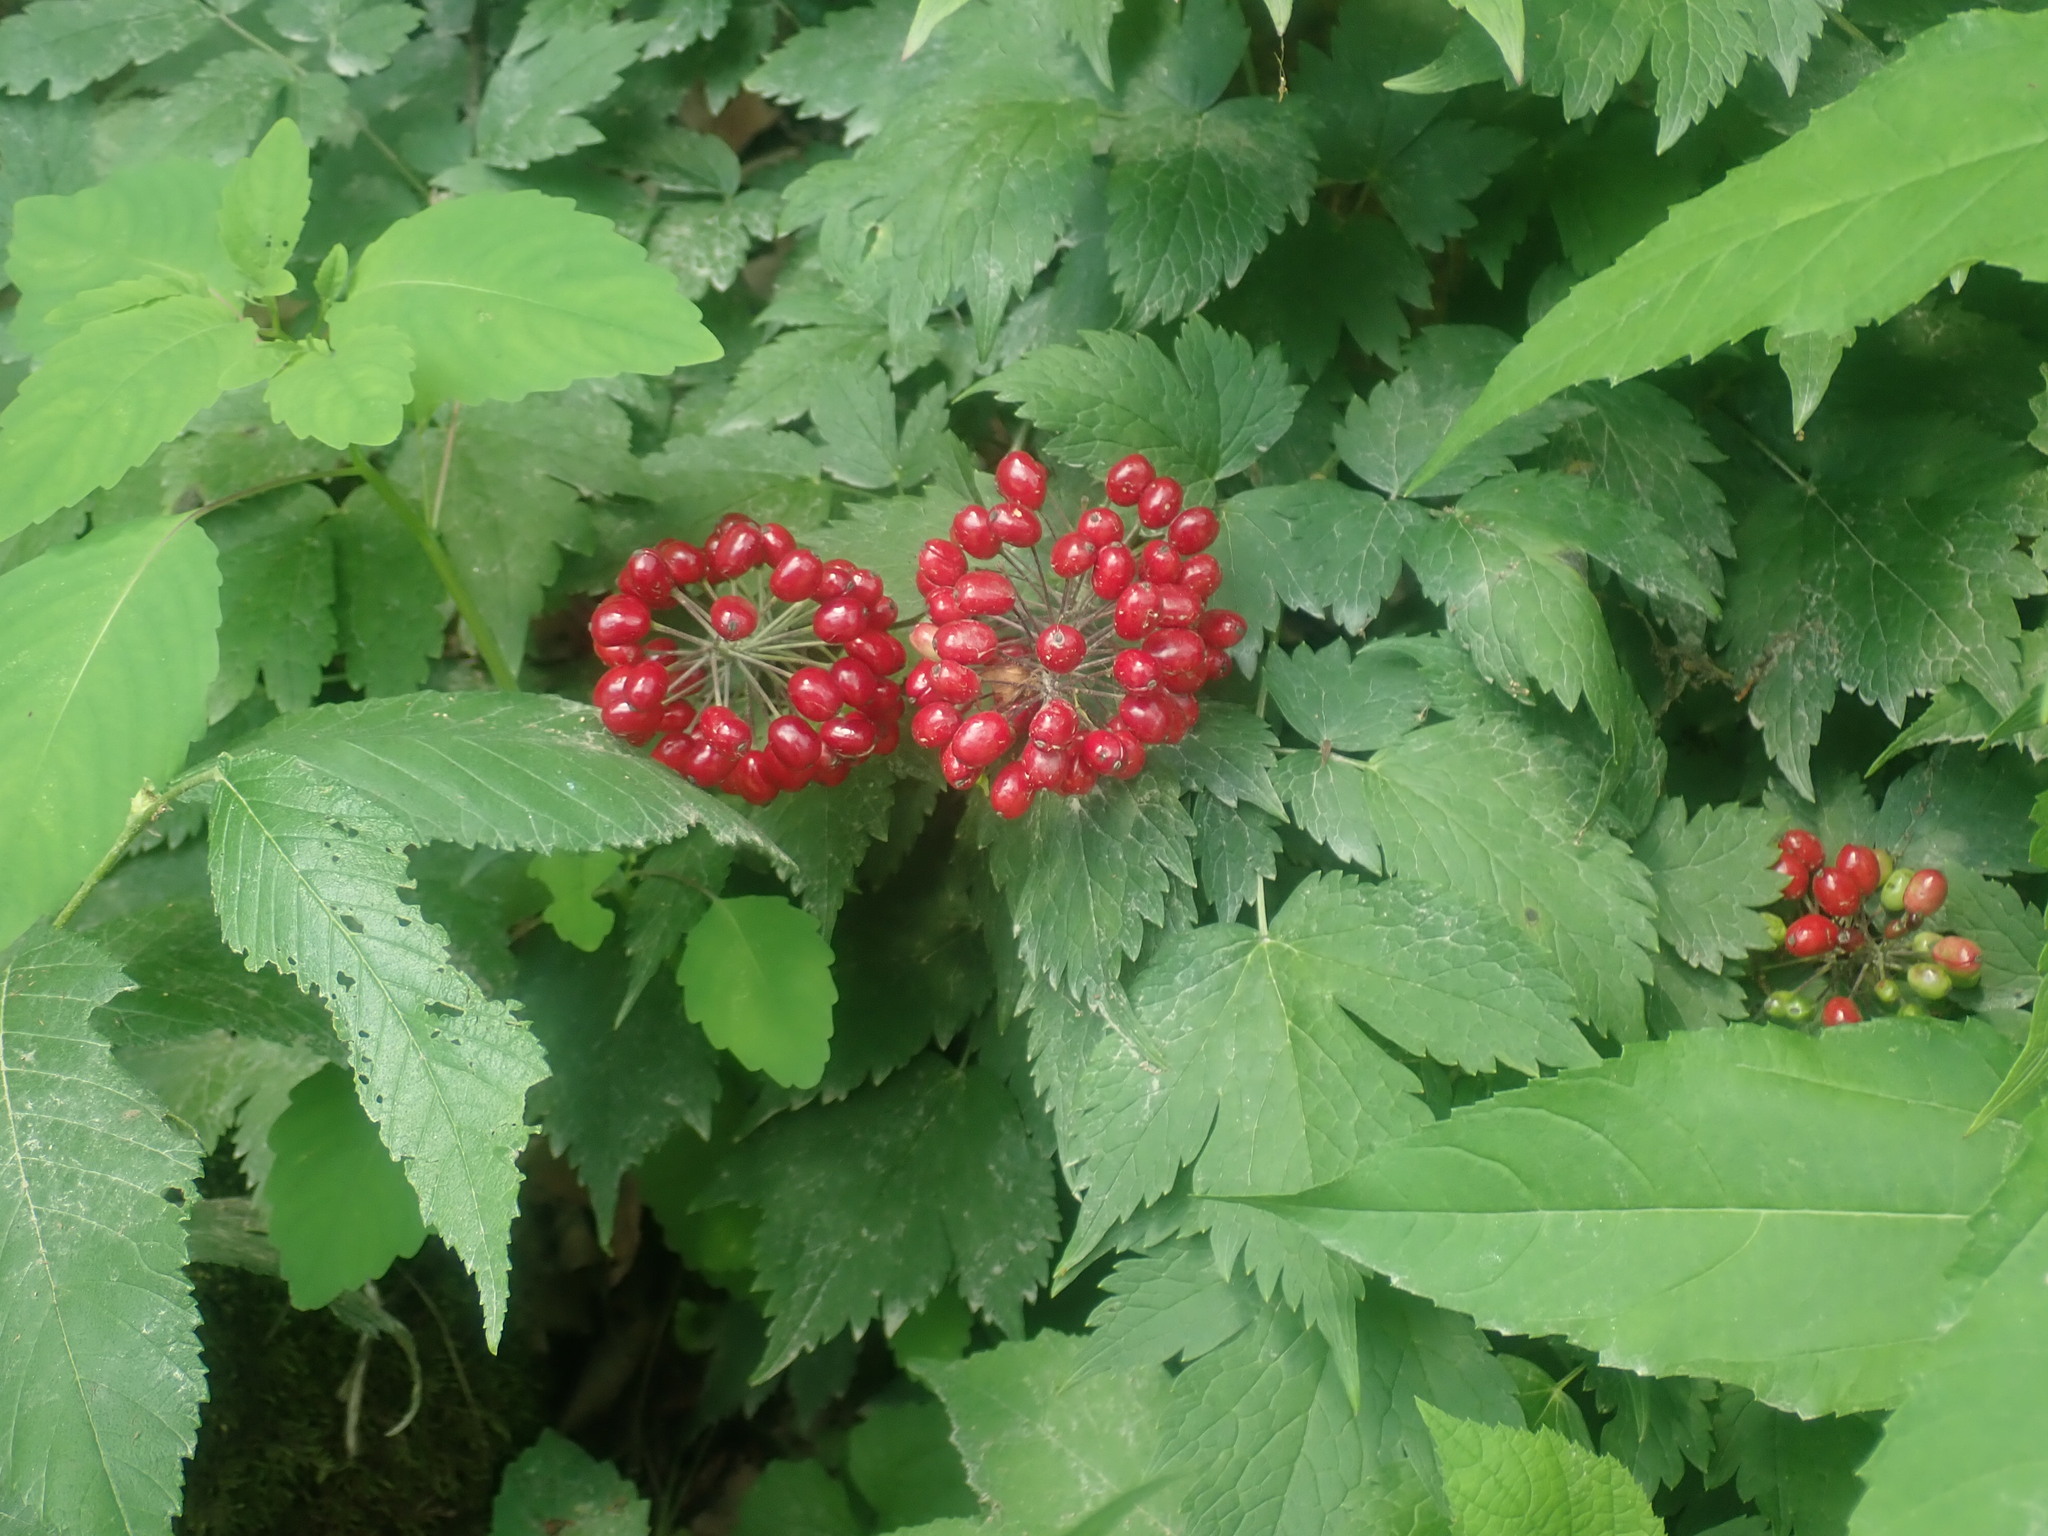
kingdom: Plantae
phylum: Tracheophyta
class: Magnoliopsida
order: Ranunculales
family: Ranunculaceae
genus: Actaea
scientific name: Actaea rubra
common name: Red baneberry
